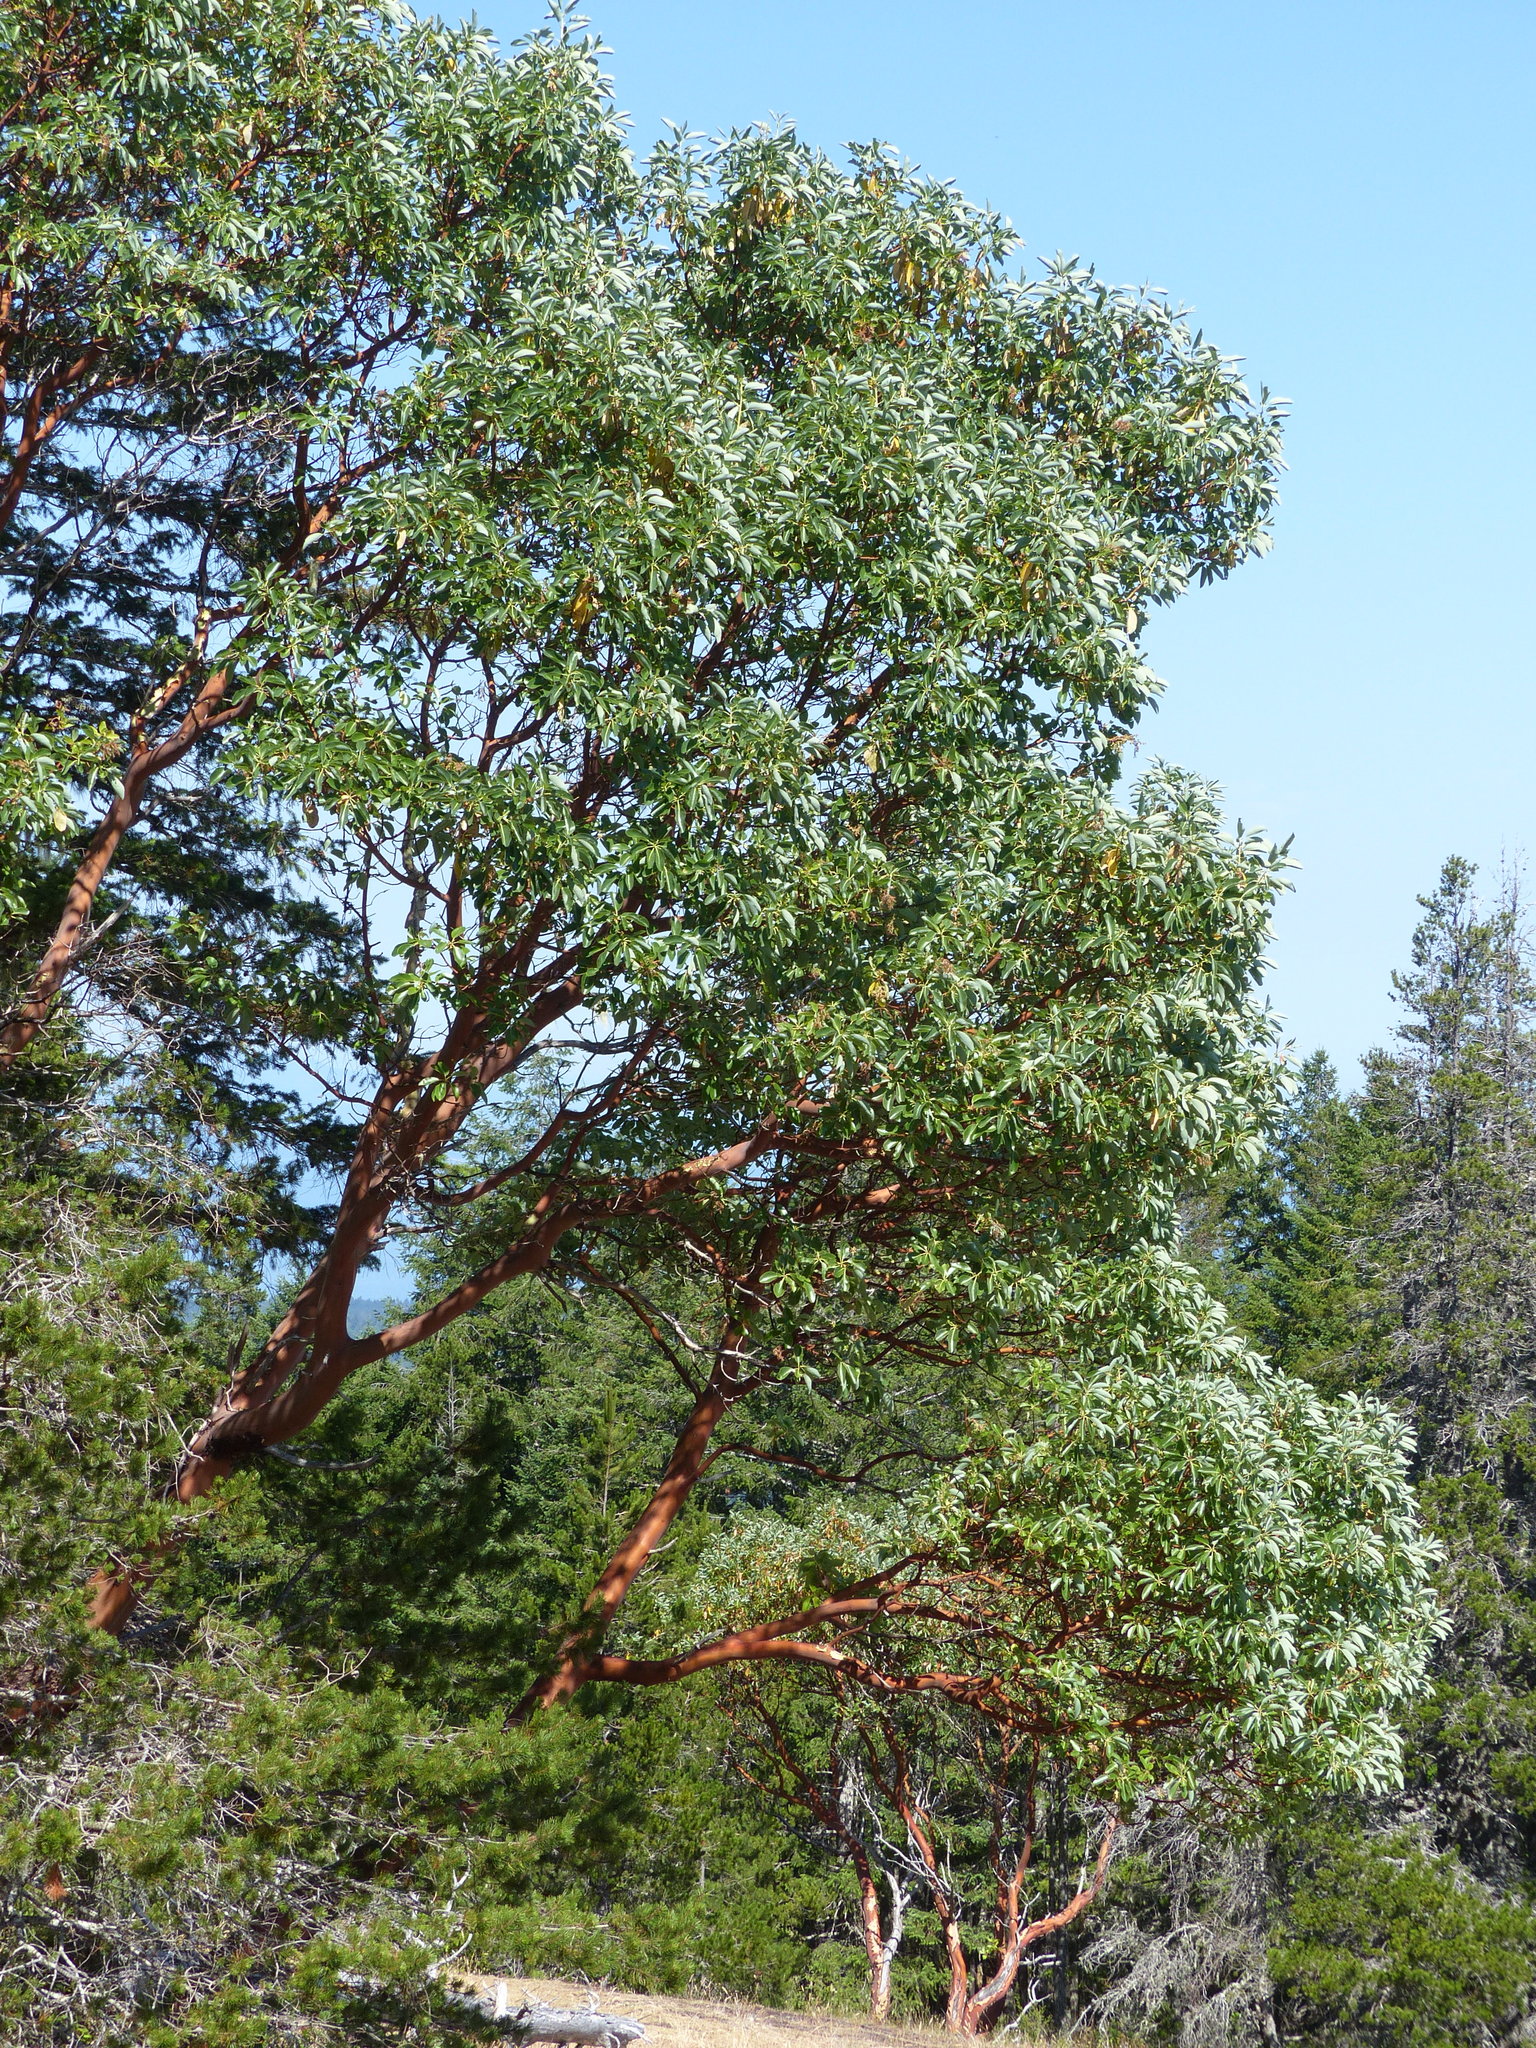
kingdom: Plantae
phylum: Tracheophyta
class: Magnoliopsida
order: Ericales
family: Ericaceae
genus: Arbutus
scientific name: Arbutus menziesii
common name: Pacific madrone
